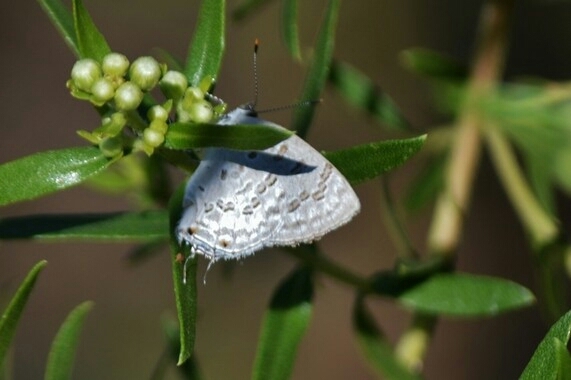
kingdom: Animalia
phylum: Arthropoda
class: Insecta
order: Lepidoptera
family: Lycaenidae
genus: Thecla
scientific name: Thecla una
